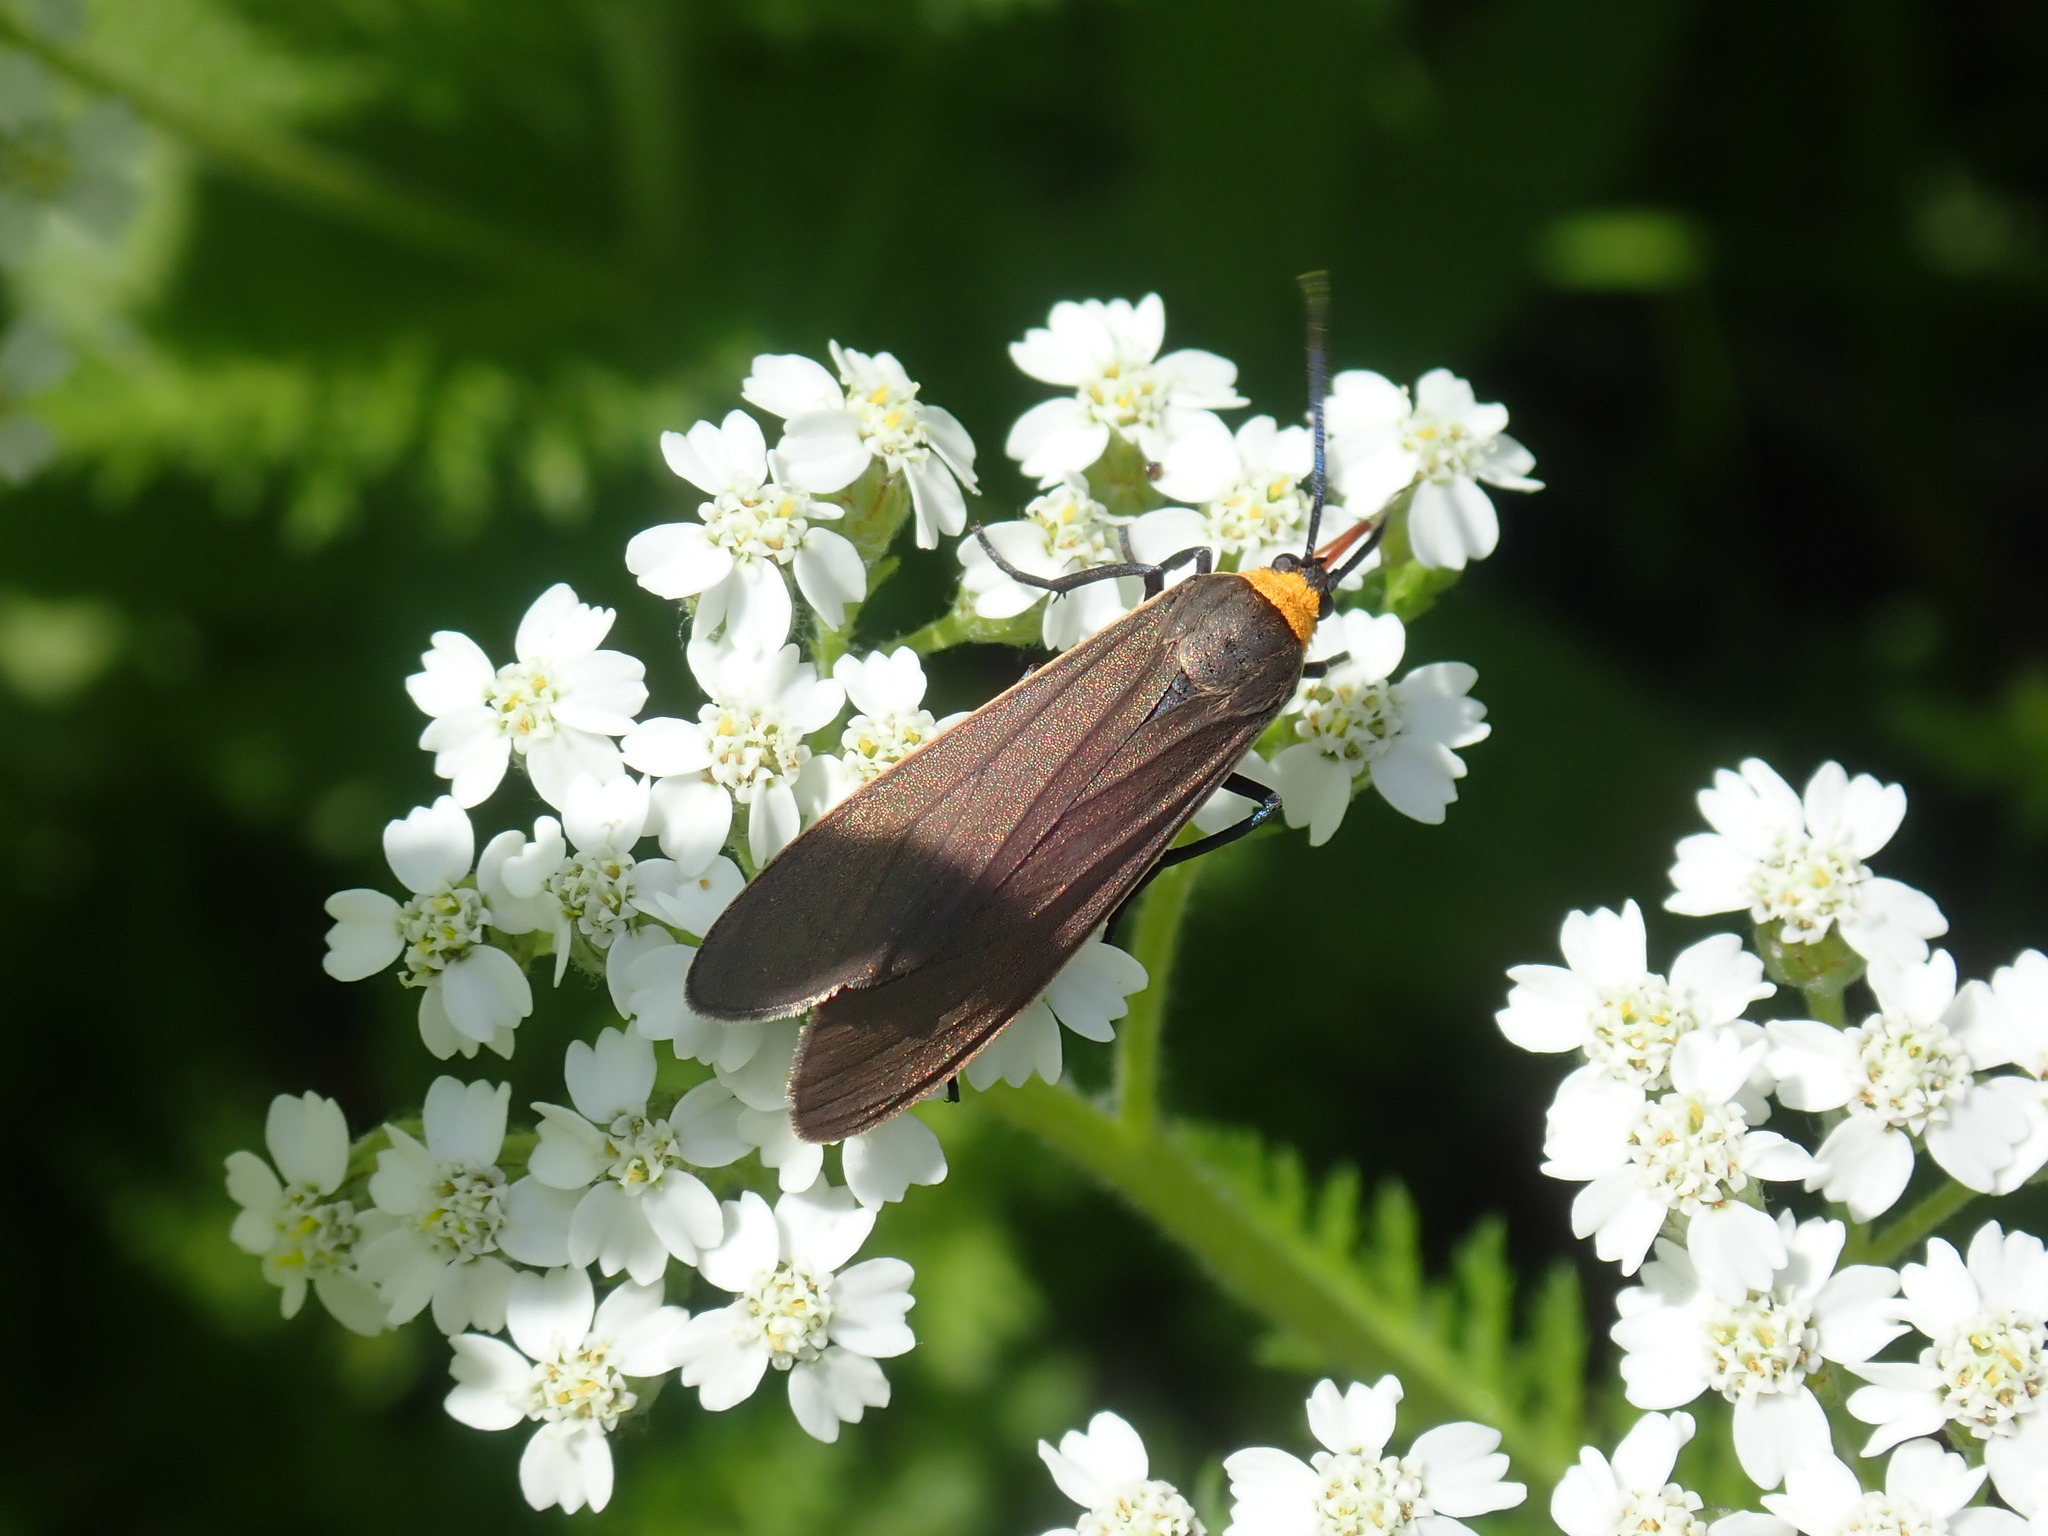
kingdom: Animalia
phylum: Arthropoda
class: Insecta
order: Lepidoptera
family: Erebidae
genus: Cisseps
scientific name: Cisseps fulvicollis
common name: Yellow-collared scape moth
